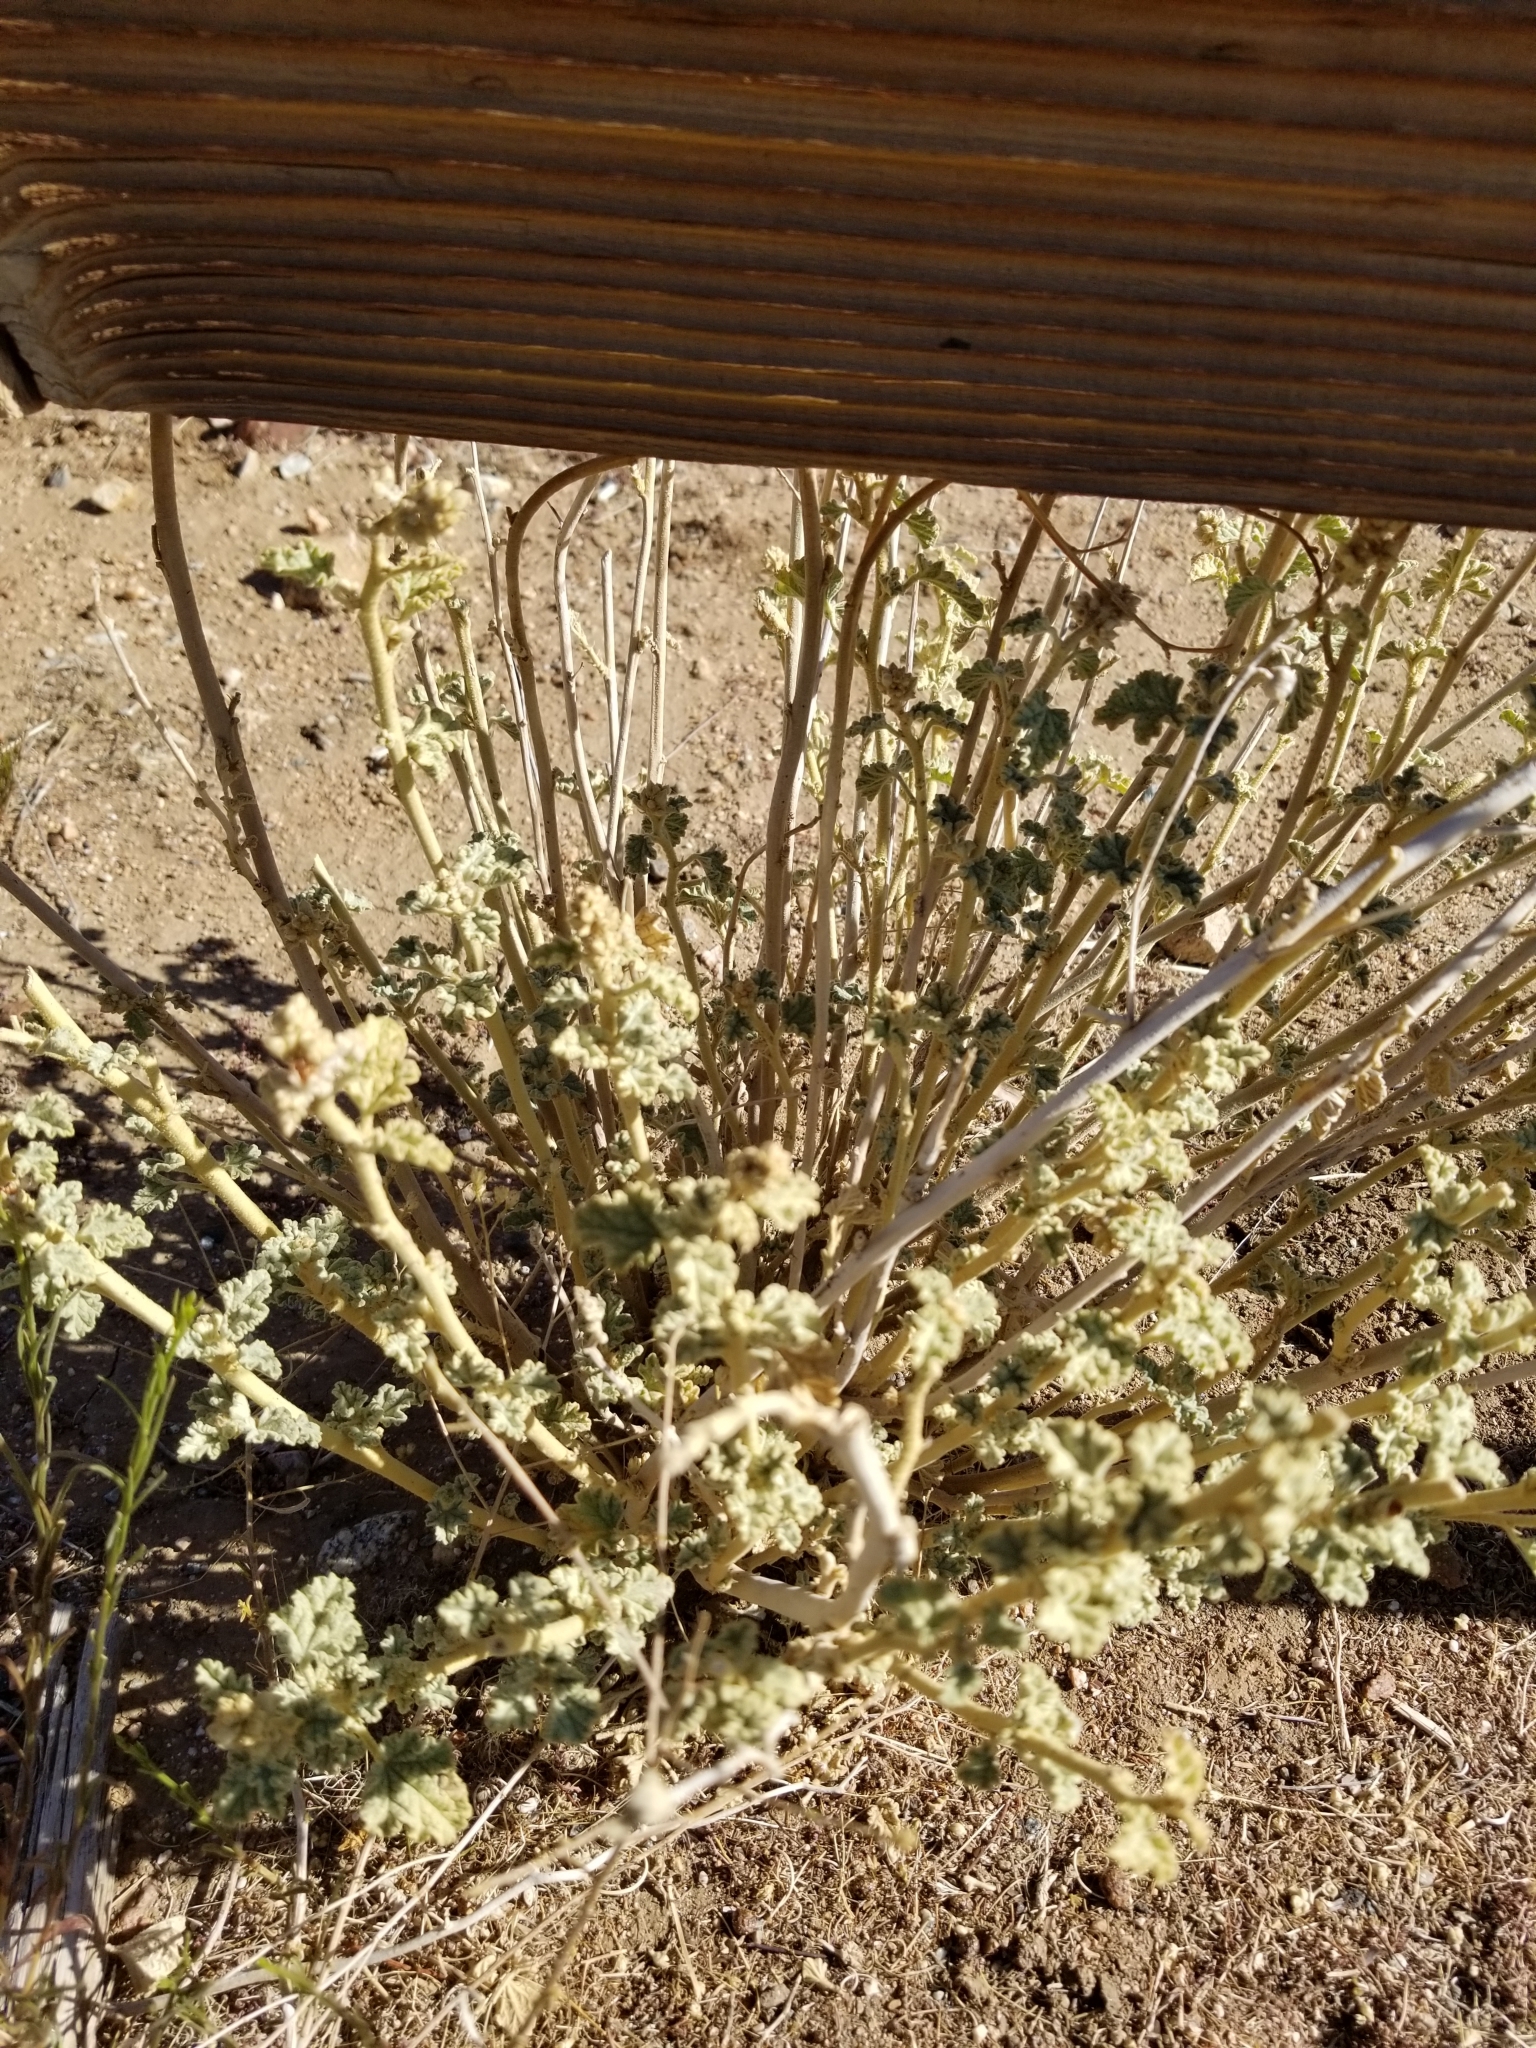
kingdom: Plantae
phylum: Tracheophyta
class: Magnoliopsida
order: Malvales
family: Malvaceae
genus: Sphaeralcea
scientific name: Sphaeralcea ambigua
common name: Apricot globe-mallow
